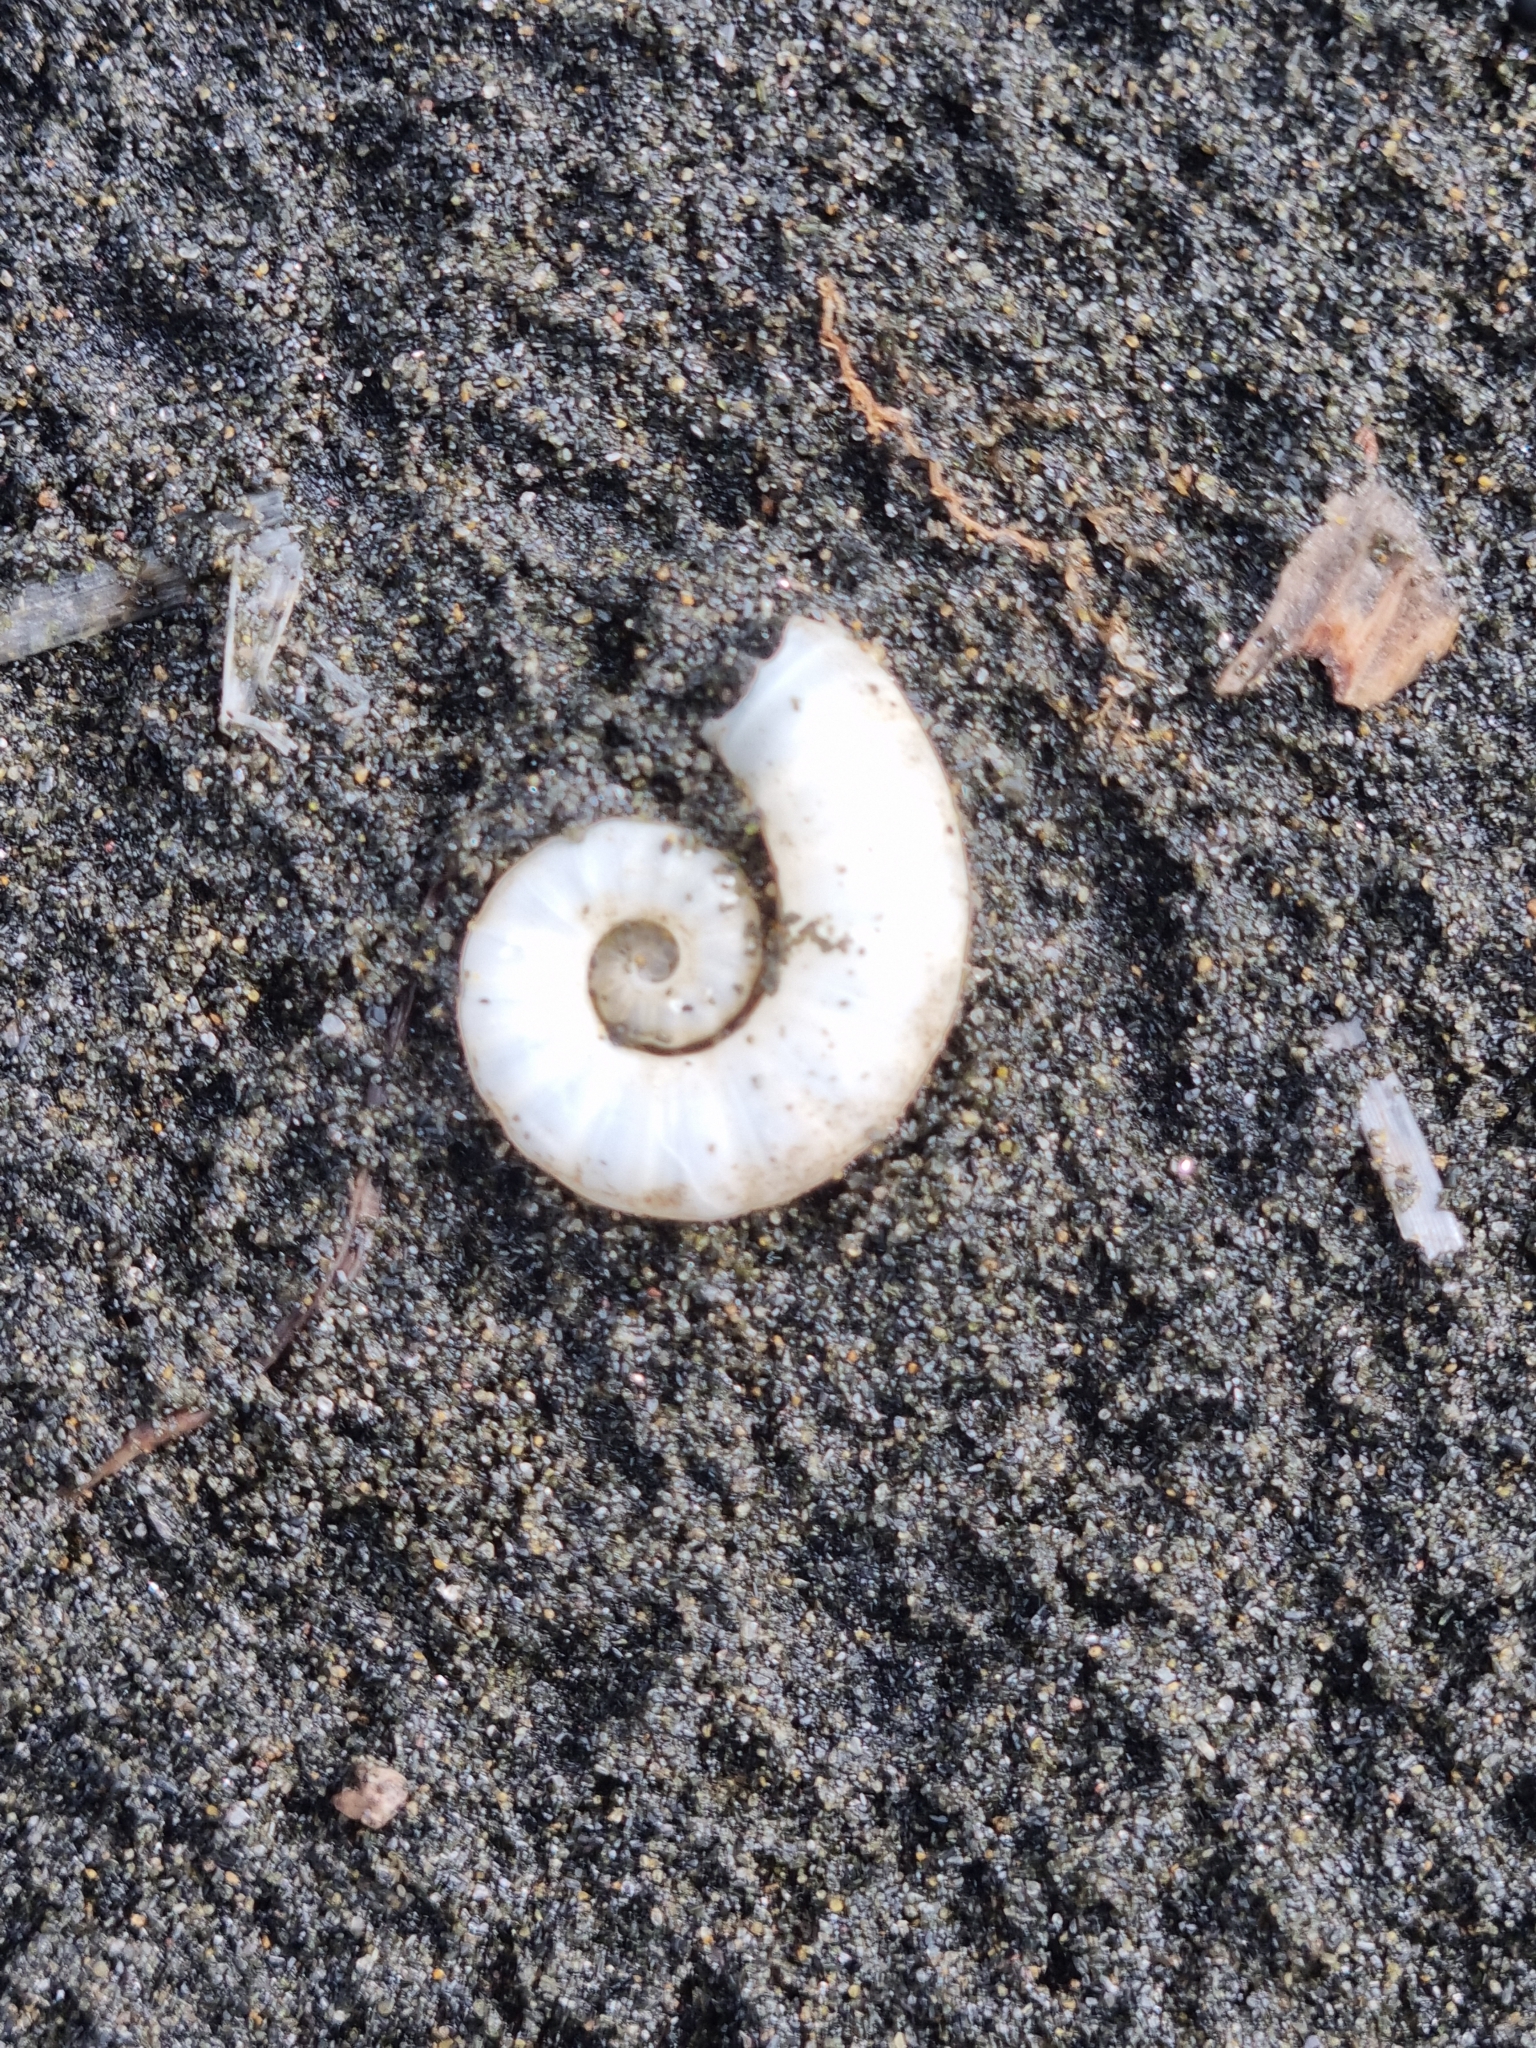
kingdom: Animalia
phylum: Mollusca
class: Cephalopoda
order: Spirulida
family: Spirulidae
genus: Spirula
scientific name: Spirula spirula
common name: Ram's horn squid
